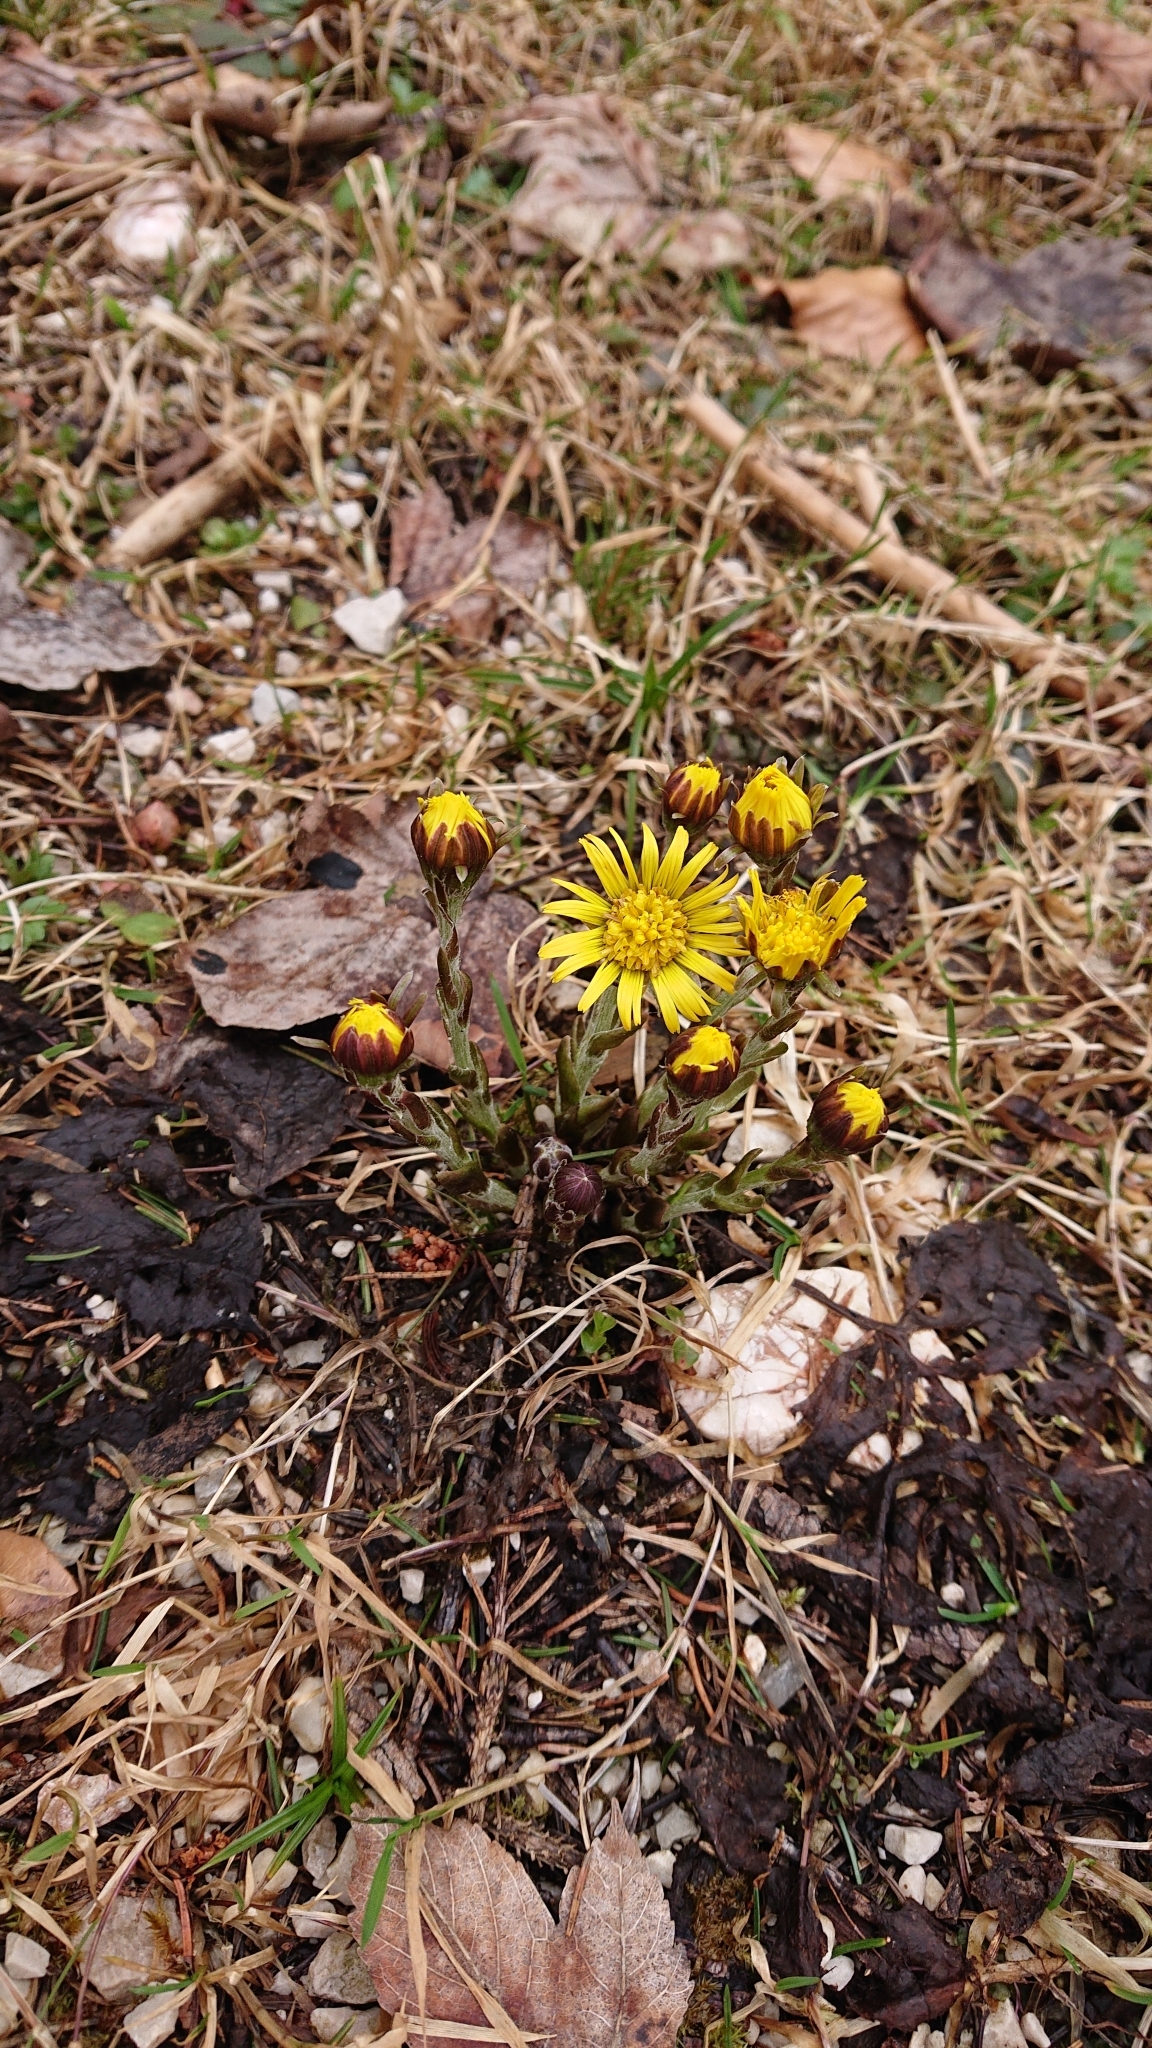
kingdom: Plantae
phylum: Tracheophyta
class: Magnoliopsida
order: Asterales
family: Asteraceae
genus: Tussilago
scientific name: Tussilago farfara
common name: Coltsfoot
